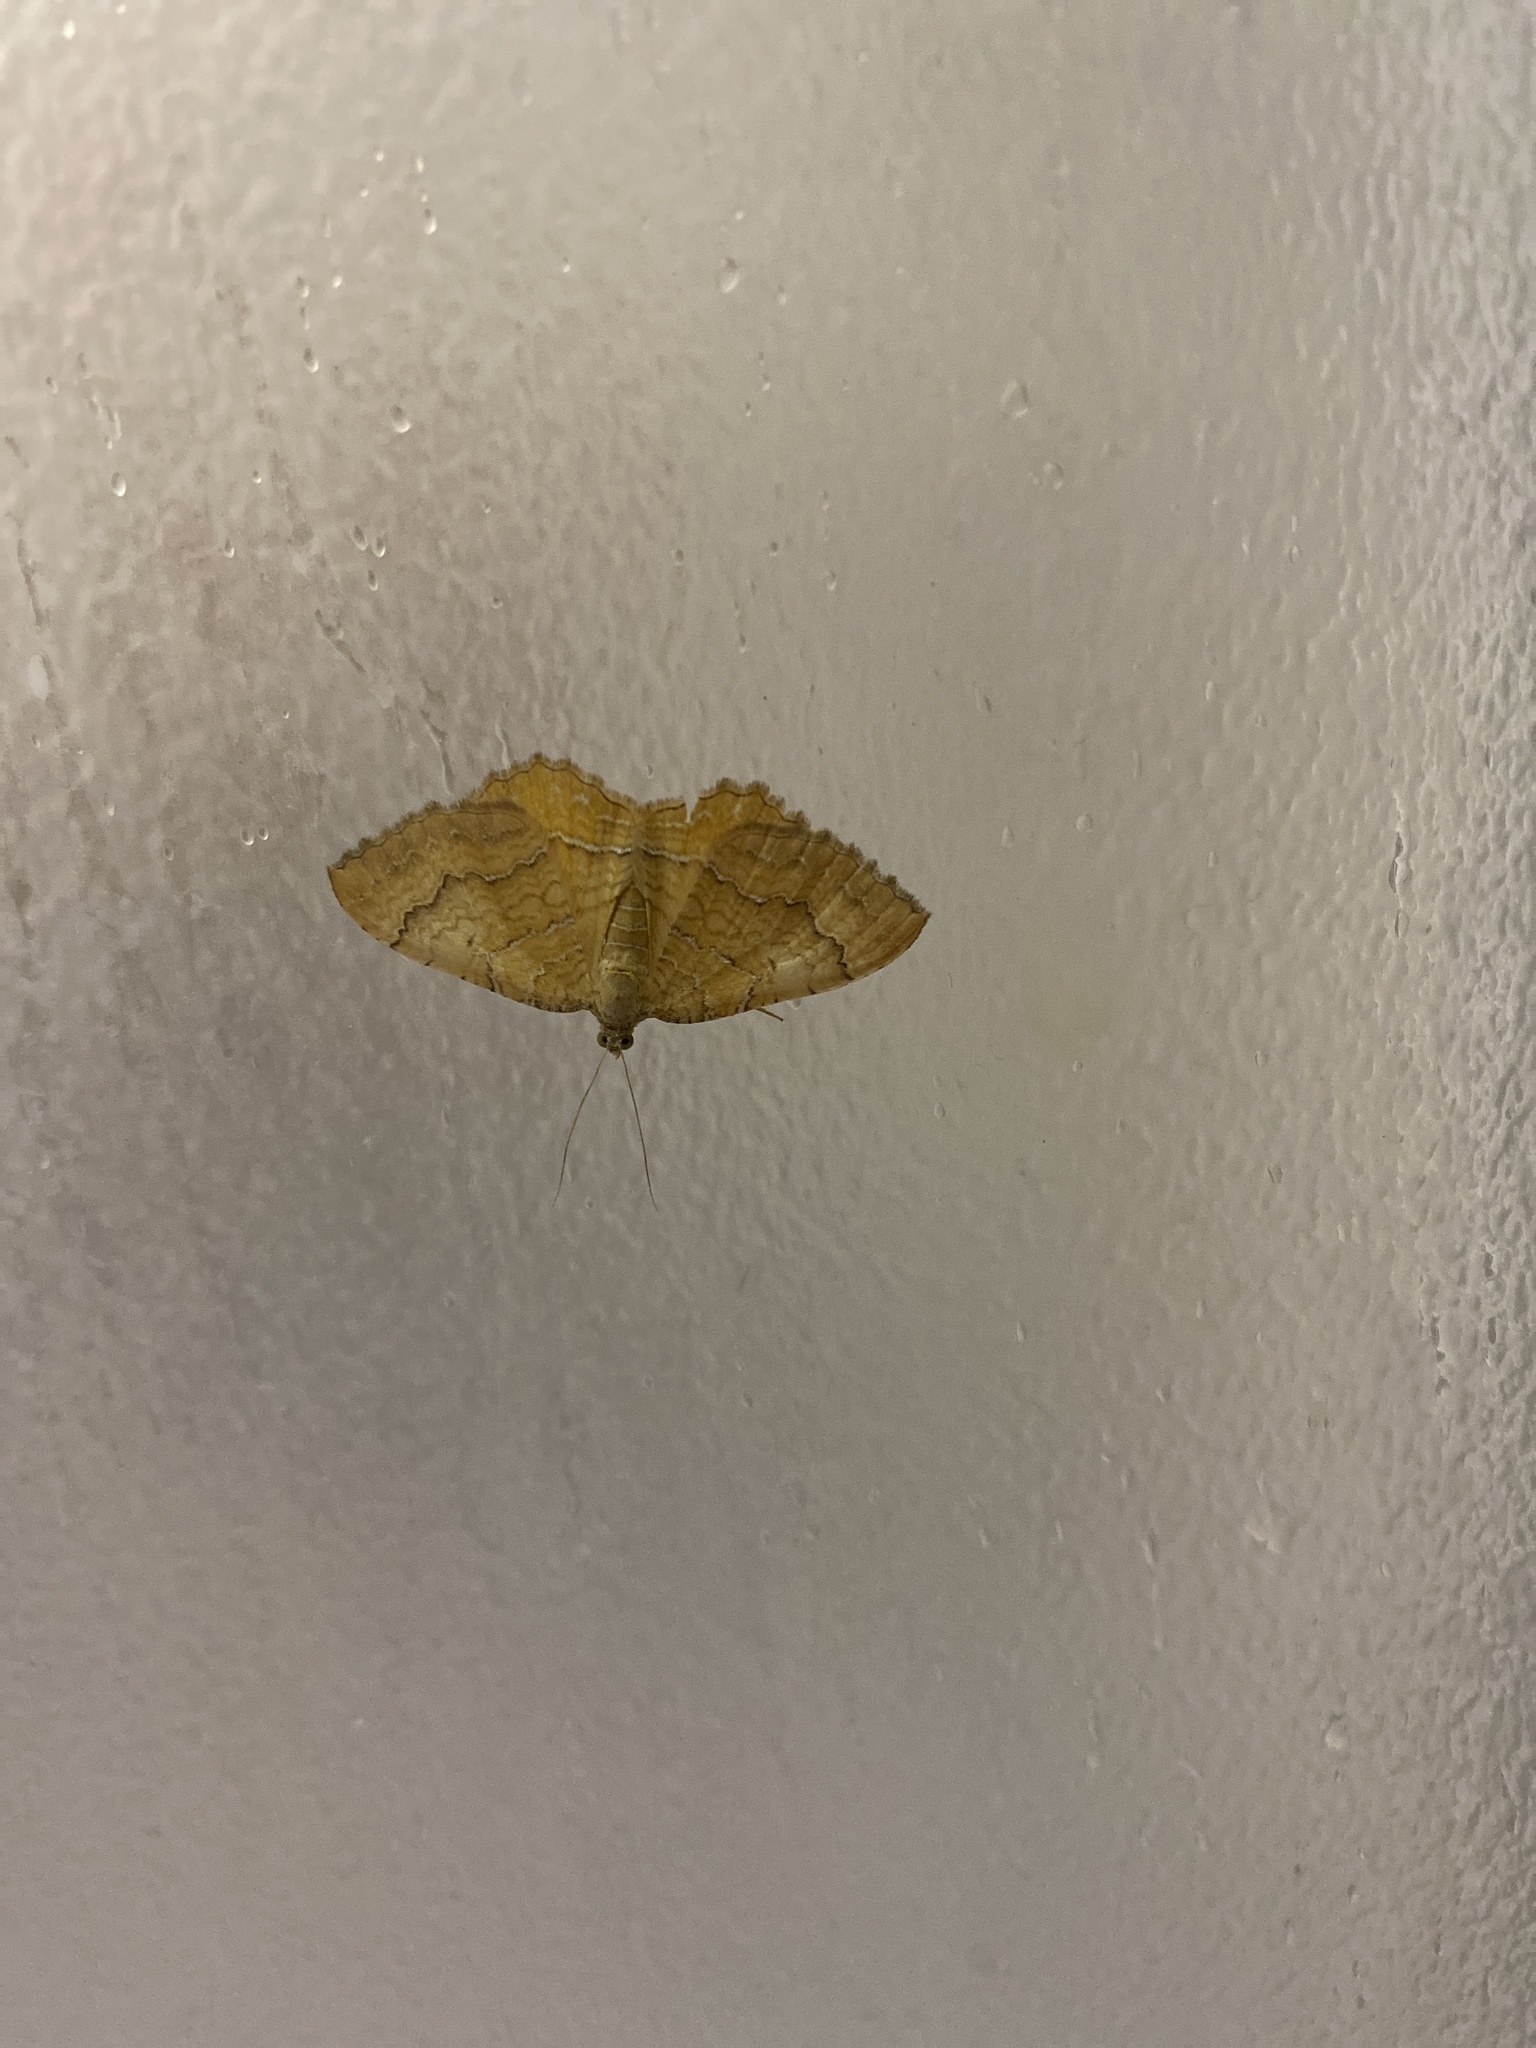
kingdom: Animalia
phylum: Arthropoda
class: Insecta
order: Lepidoptera
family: Geometridae
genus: Camptogramma
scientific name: Camptogramma bilineata
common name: Yellow shell
